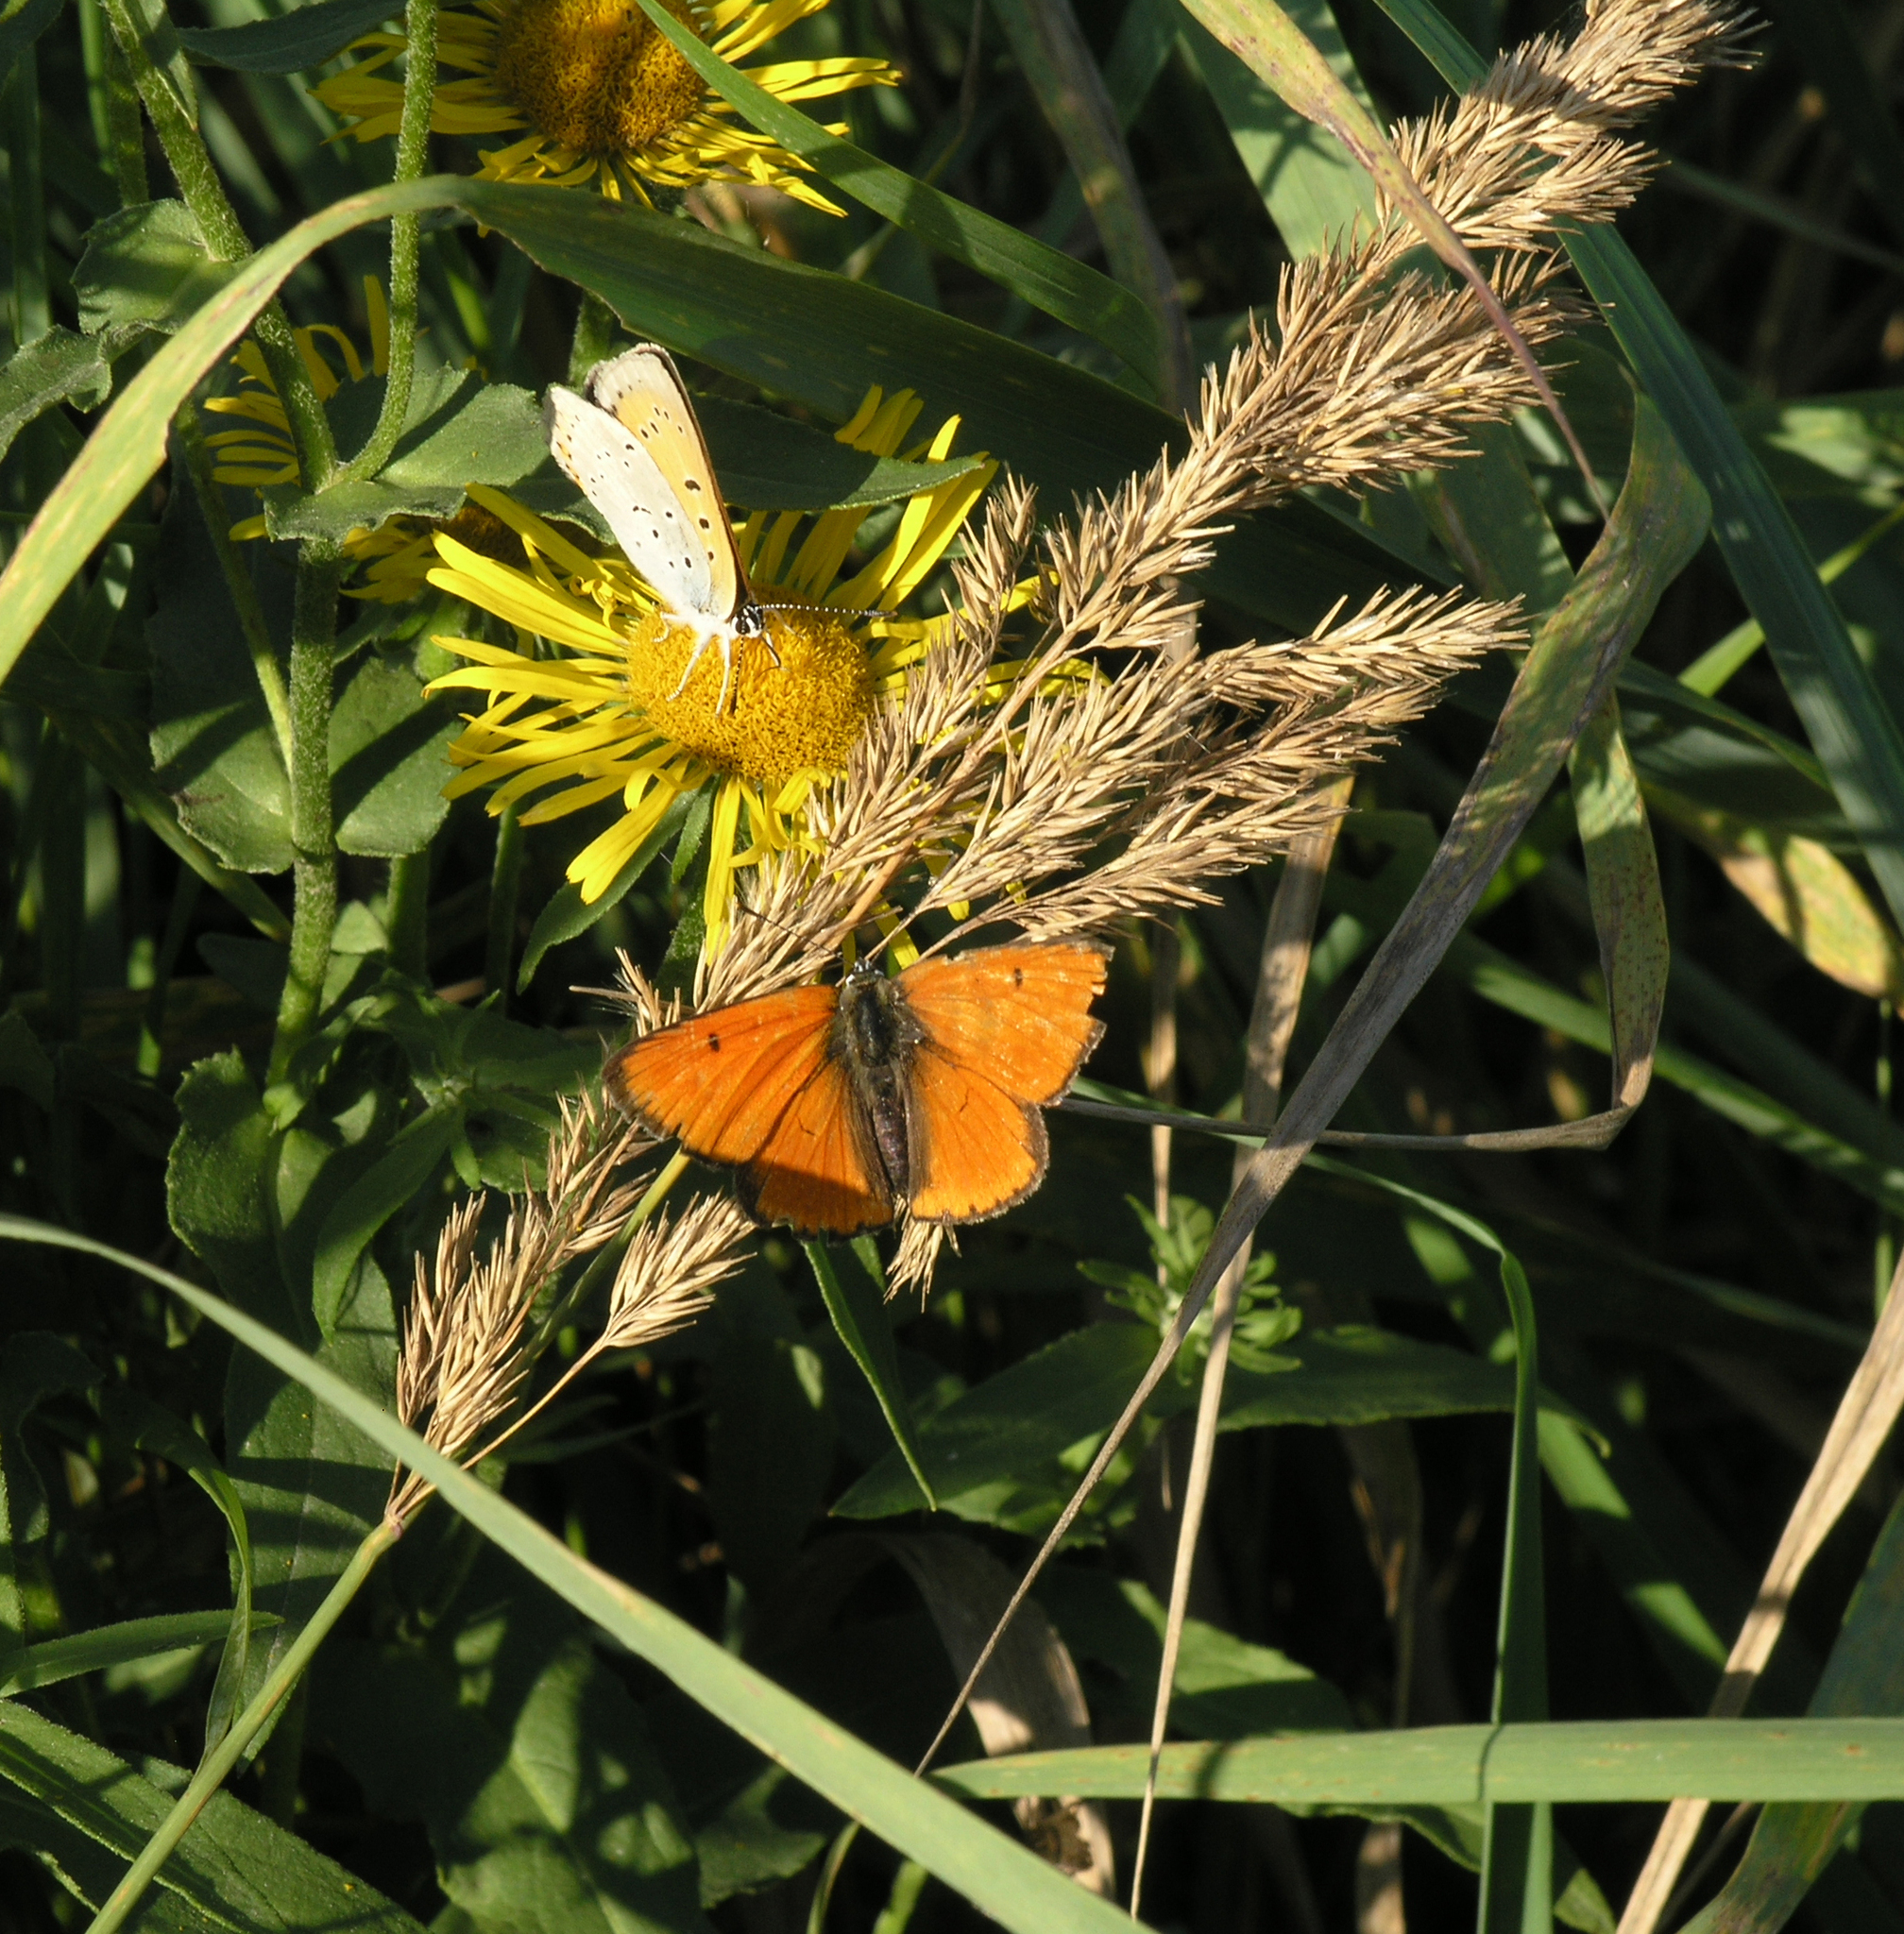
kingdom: Animalia
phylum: Arthropoda
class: Insecta
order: Lepidoptera
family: Lycaenidae
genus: Lycaena
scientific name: Lycaena dispar
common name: Large copper
